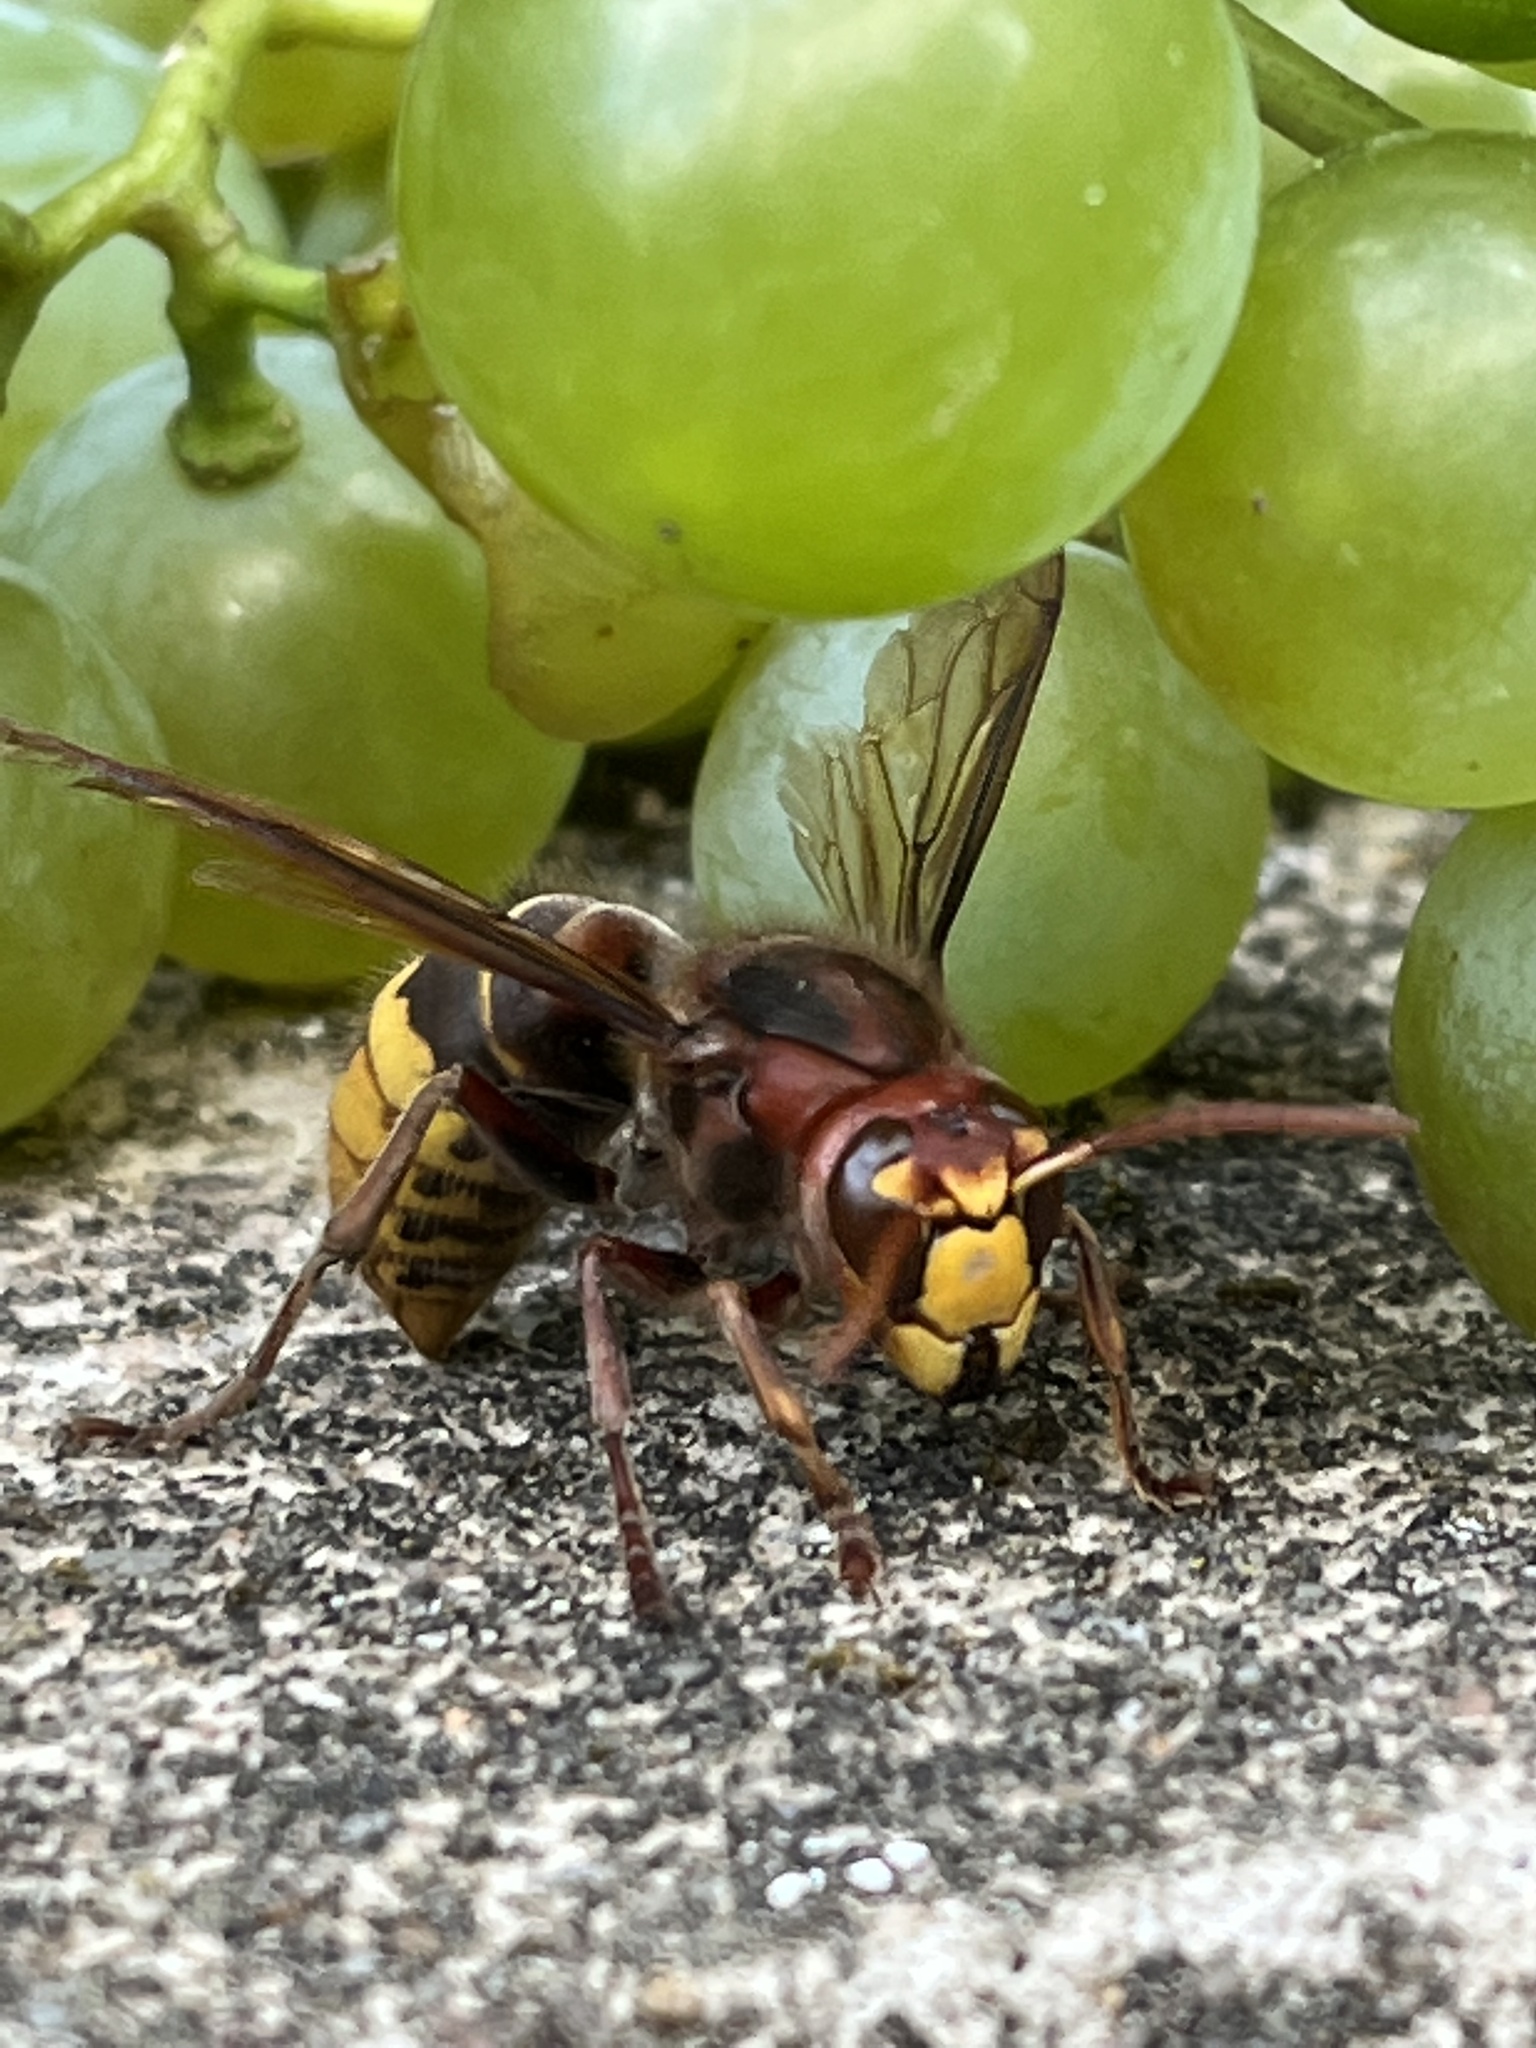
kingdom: Animalia
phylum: Arthropoda
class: Insecta
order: Hymenoptera
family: Vespidae
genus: Vespa
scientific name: Vespa crabro
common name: Hornet
